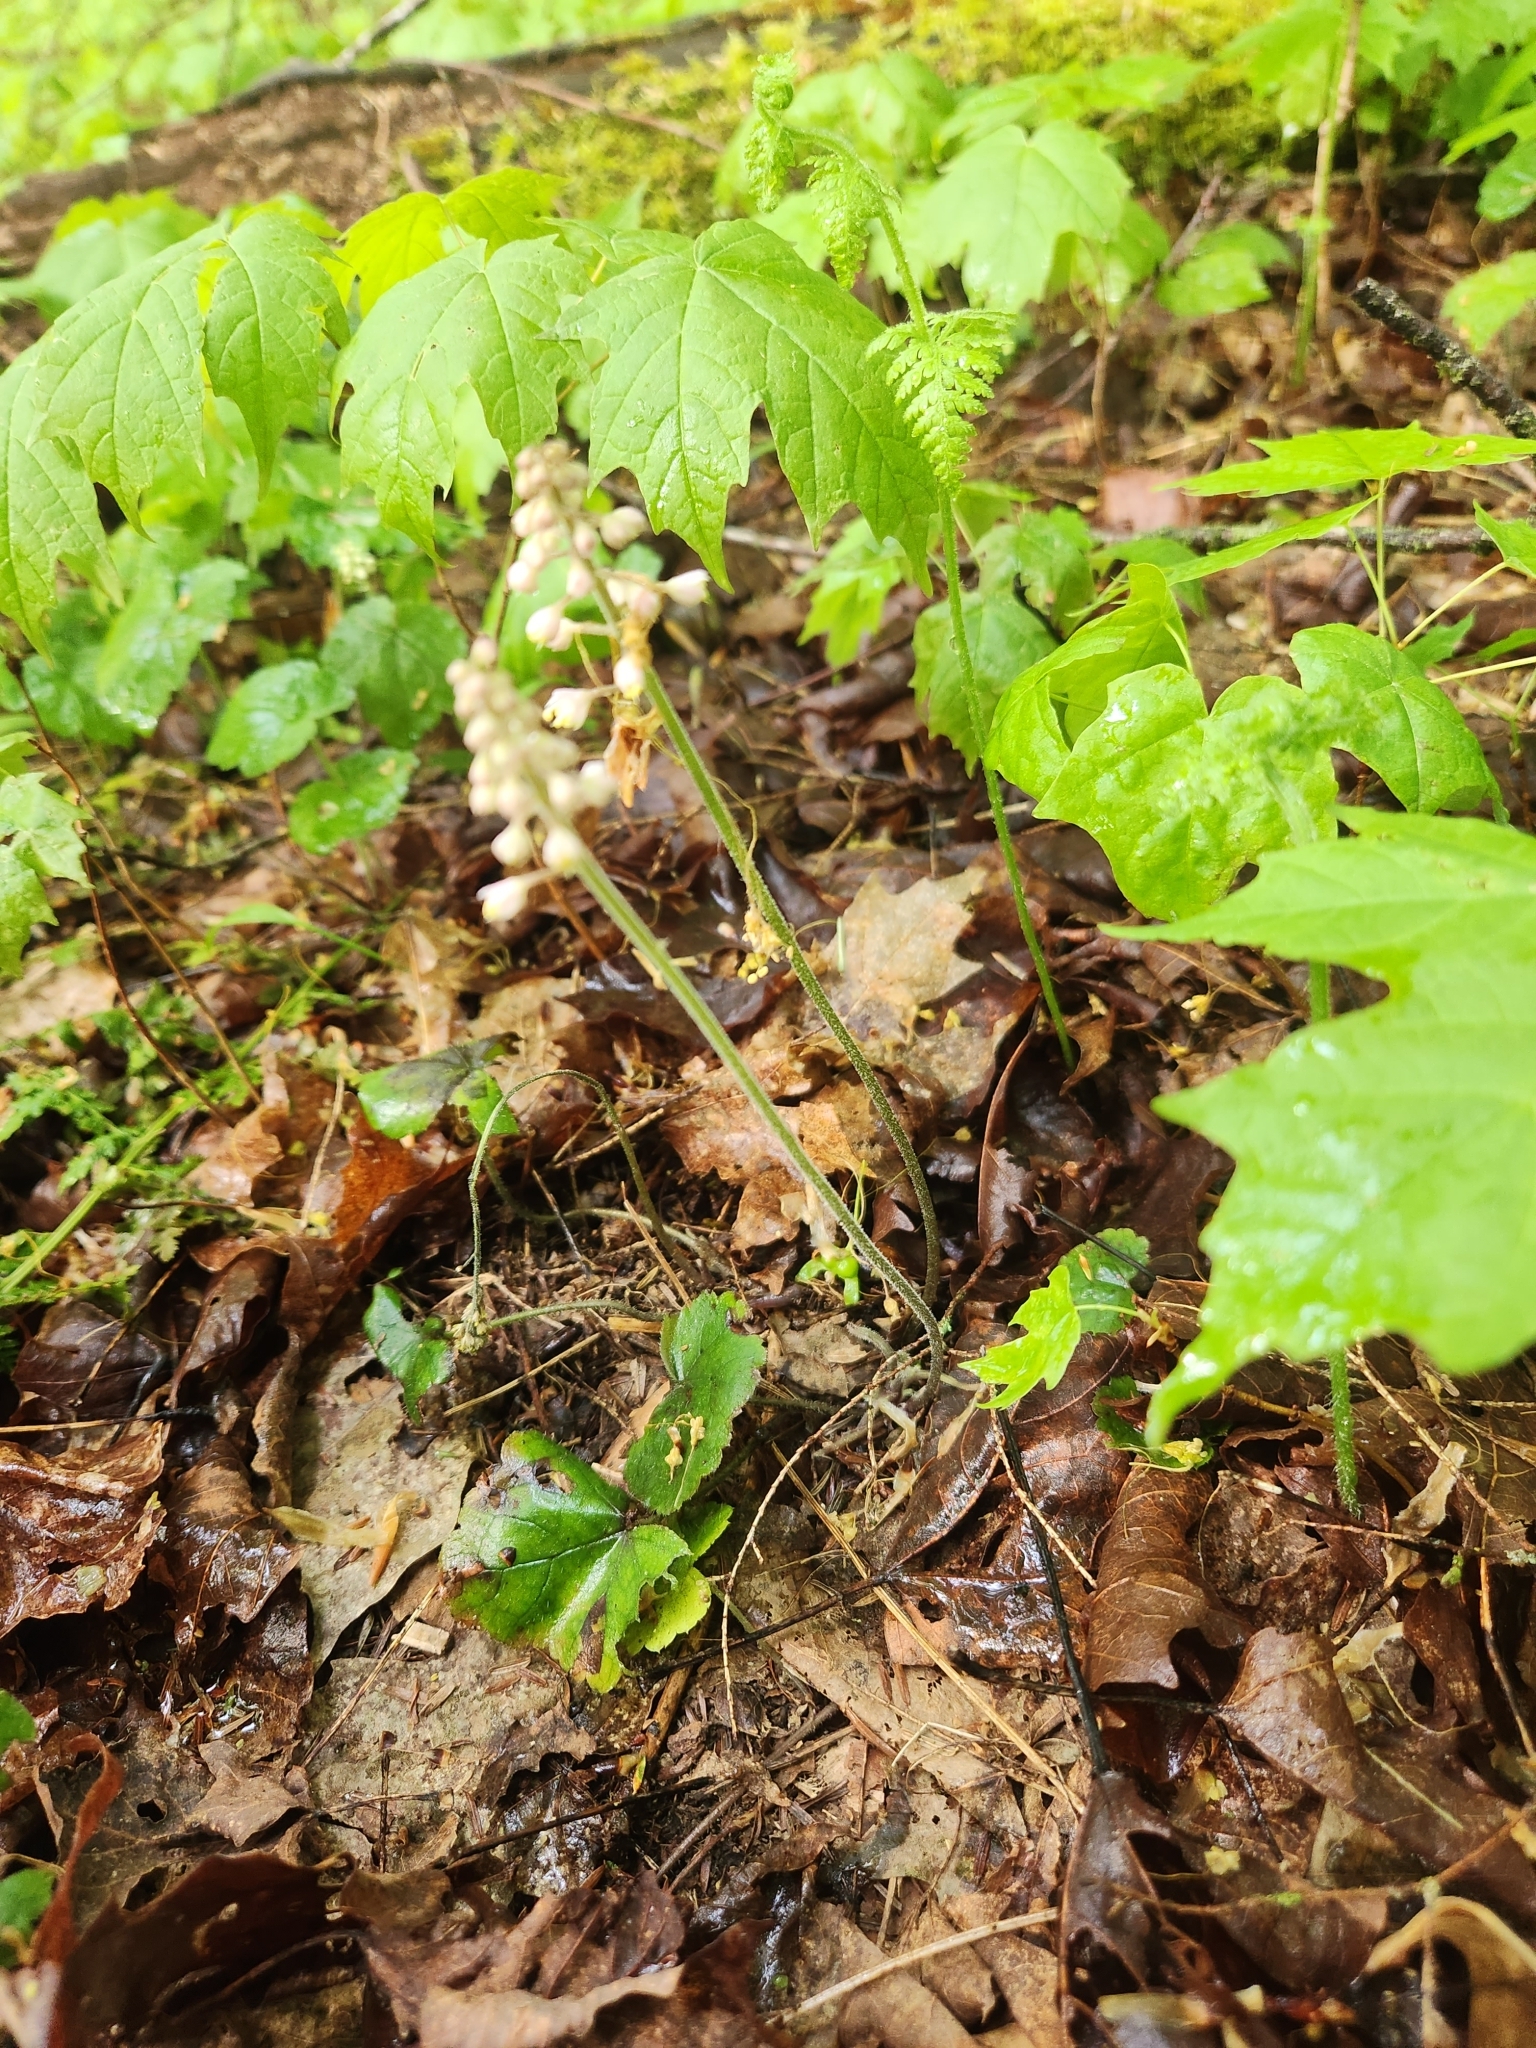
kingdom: Plantae
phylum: Tracheophyta
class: Magnoliopsida
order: Saxifragales
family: Saxifragaceae
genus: Tiarella
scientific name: Tiarella stolonifera
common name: Stoloniferous foamflower
